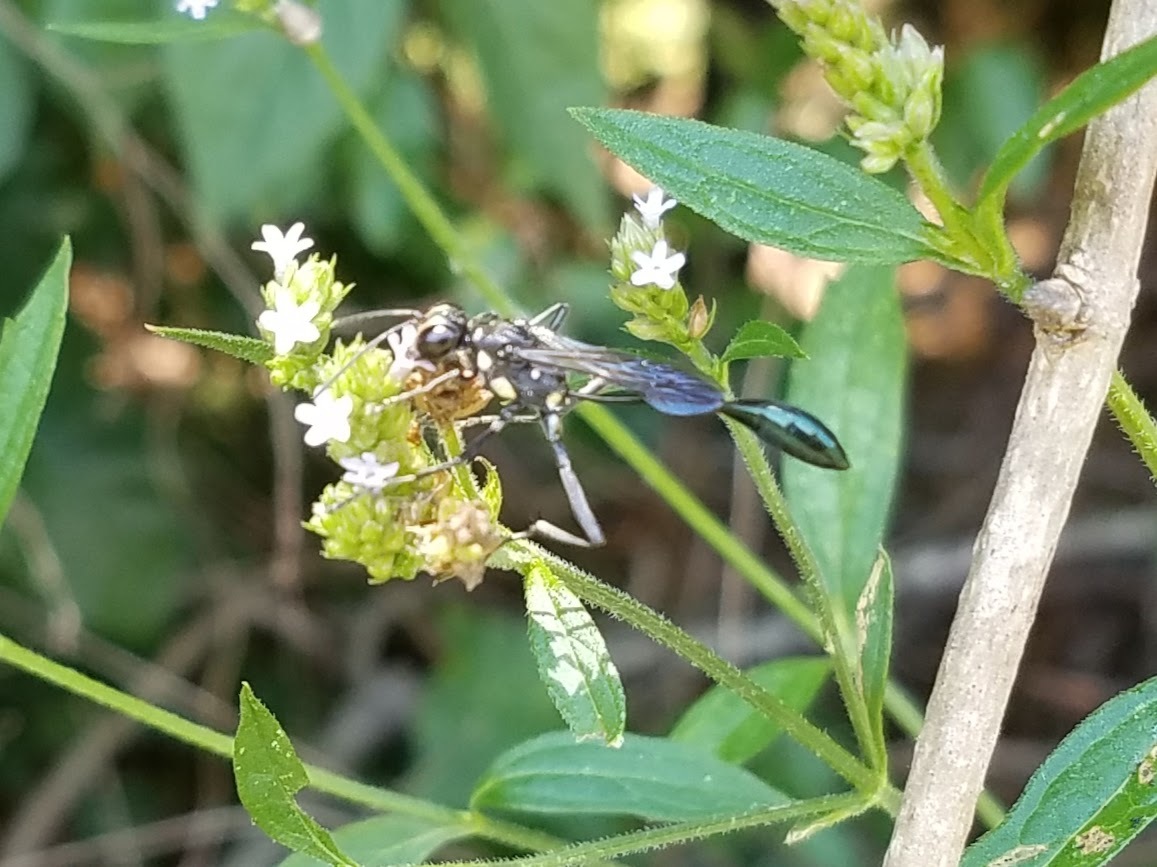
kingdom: Animalia
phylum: Arthropoda
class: Insecta
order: Hymenoptera
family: Sphecidae
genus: Eremnophila
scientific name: Eremnophila aureonotata
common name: Gold-marked thread-waisted wasp
